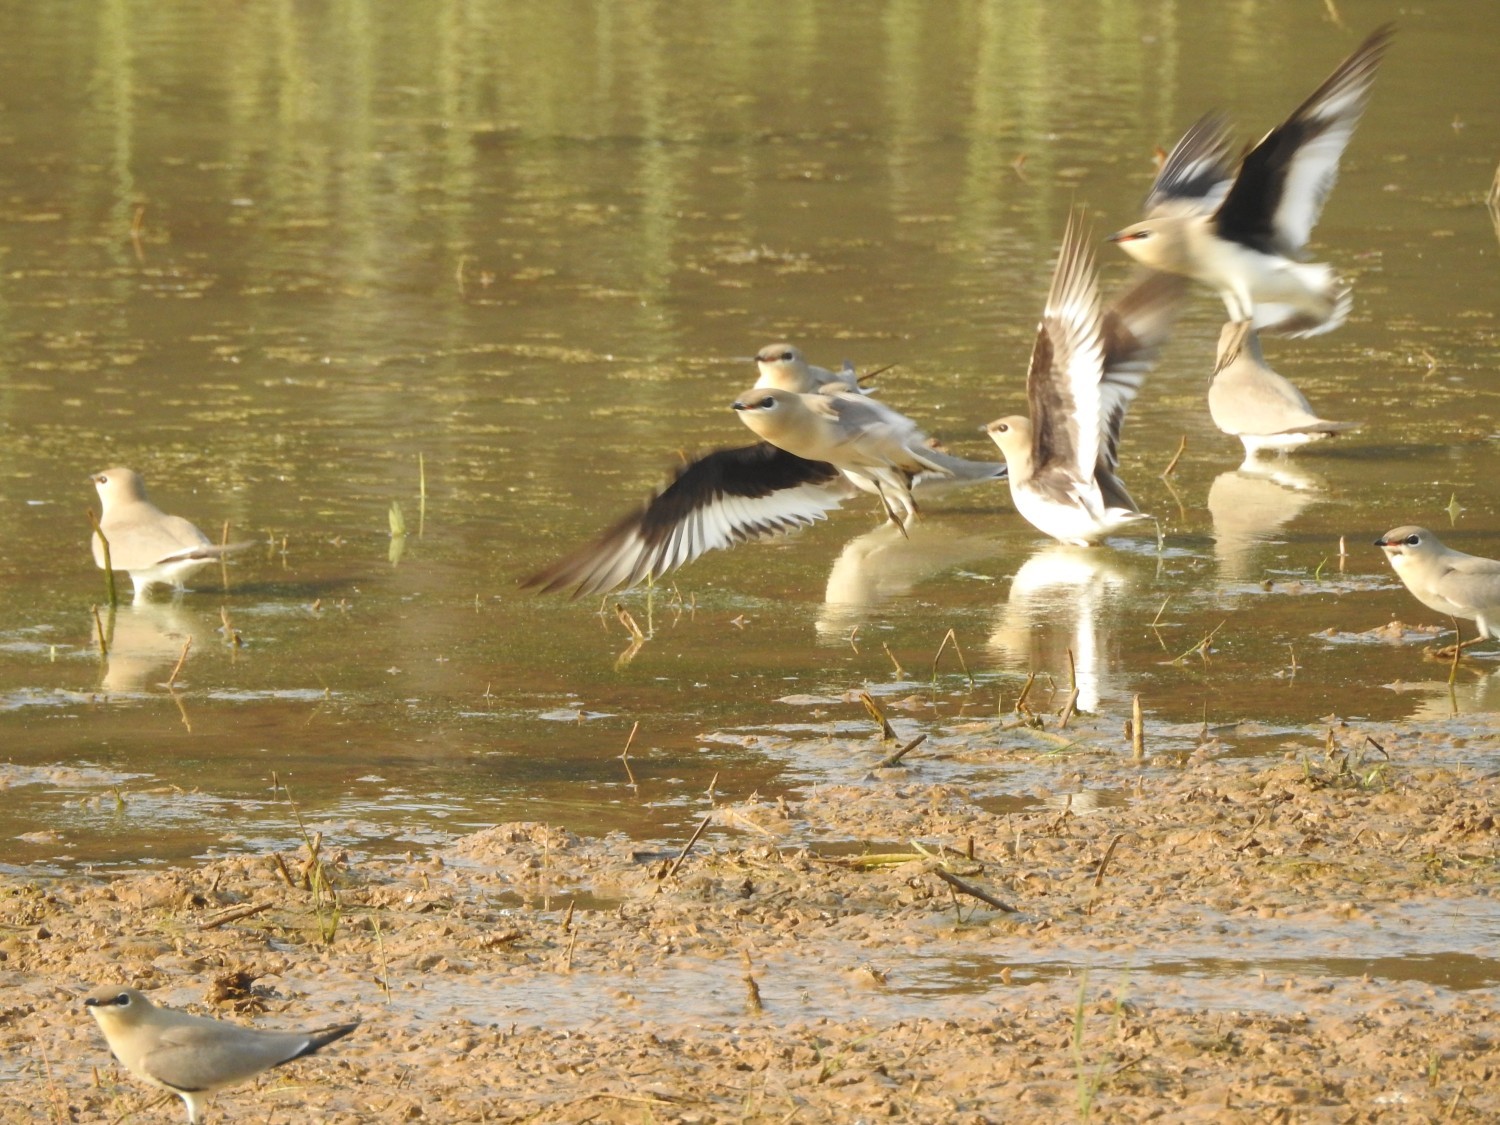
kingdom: Animalia
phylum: Chordata
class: Aves
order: Charadriiformes
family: Glareolidae
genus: Glareola
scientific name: Glareola lactea
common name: Small pratincole
